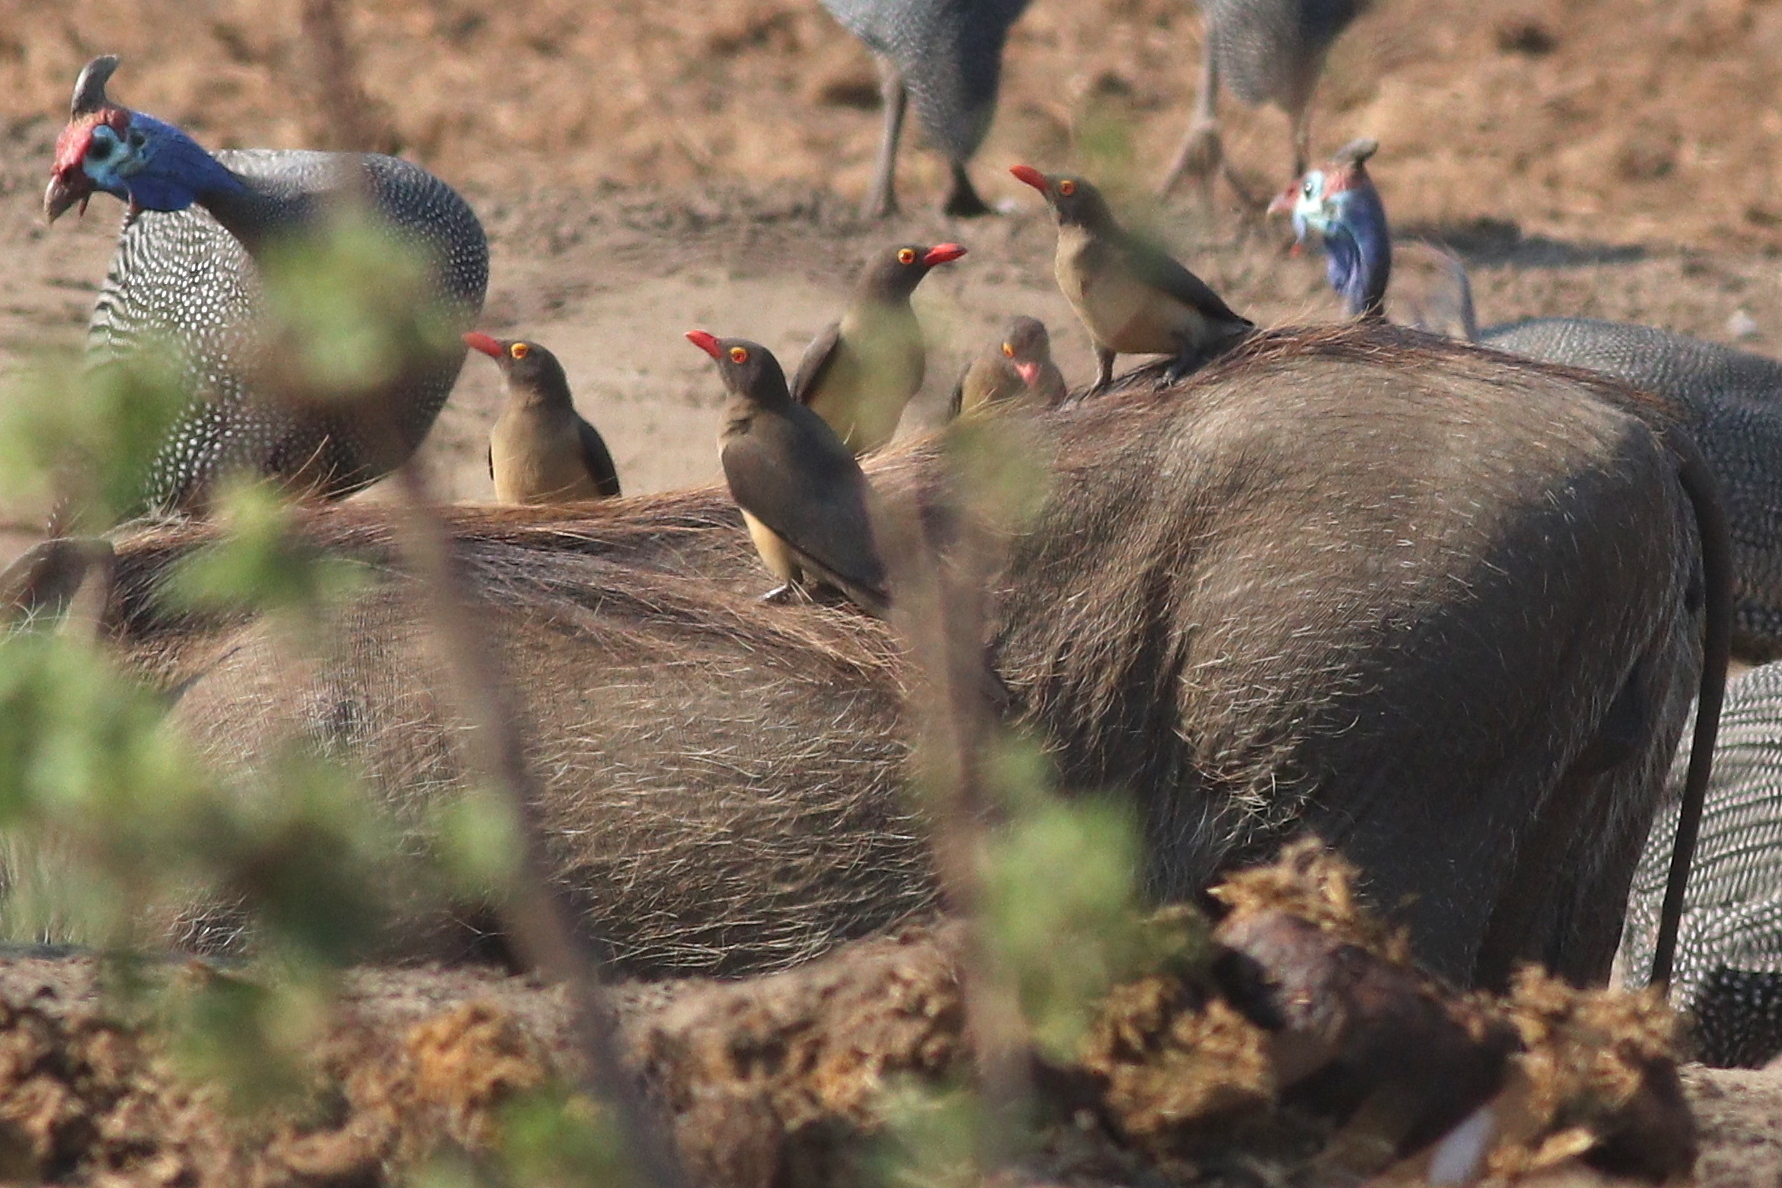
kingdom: Animalia
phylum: Chordata
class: Aves
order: Passeriformes
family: Buphagidae
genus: Buphagus
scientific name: Buphagus erythrorhynchus
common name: Red-billed oxpecker
